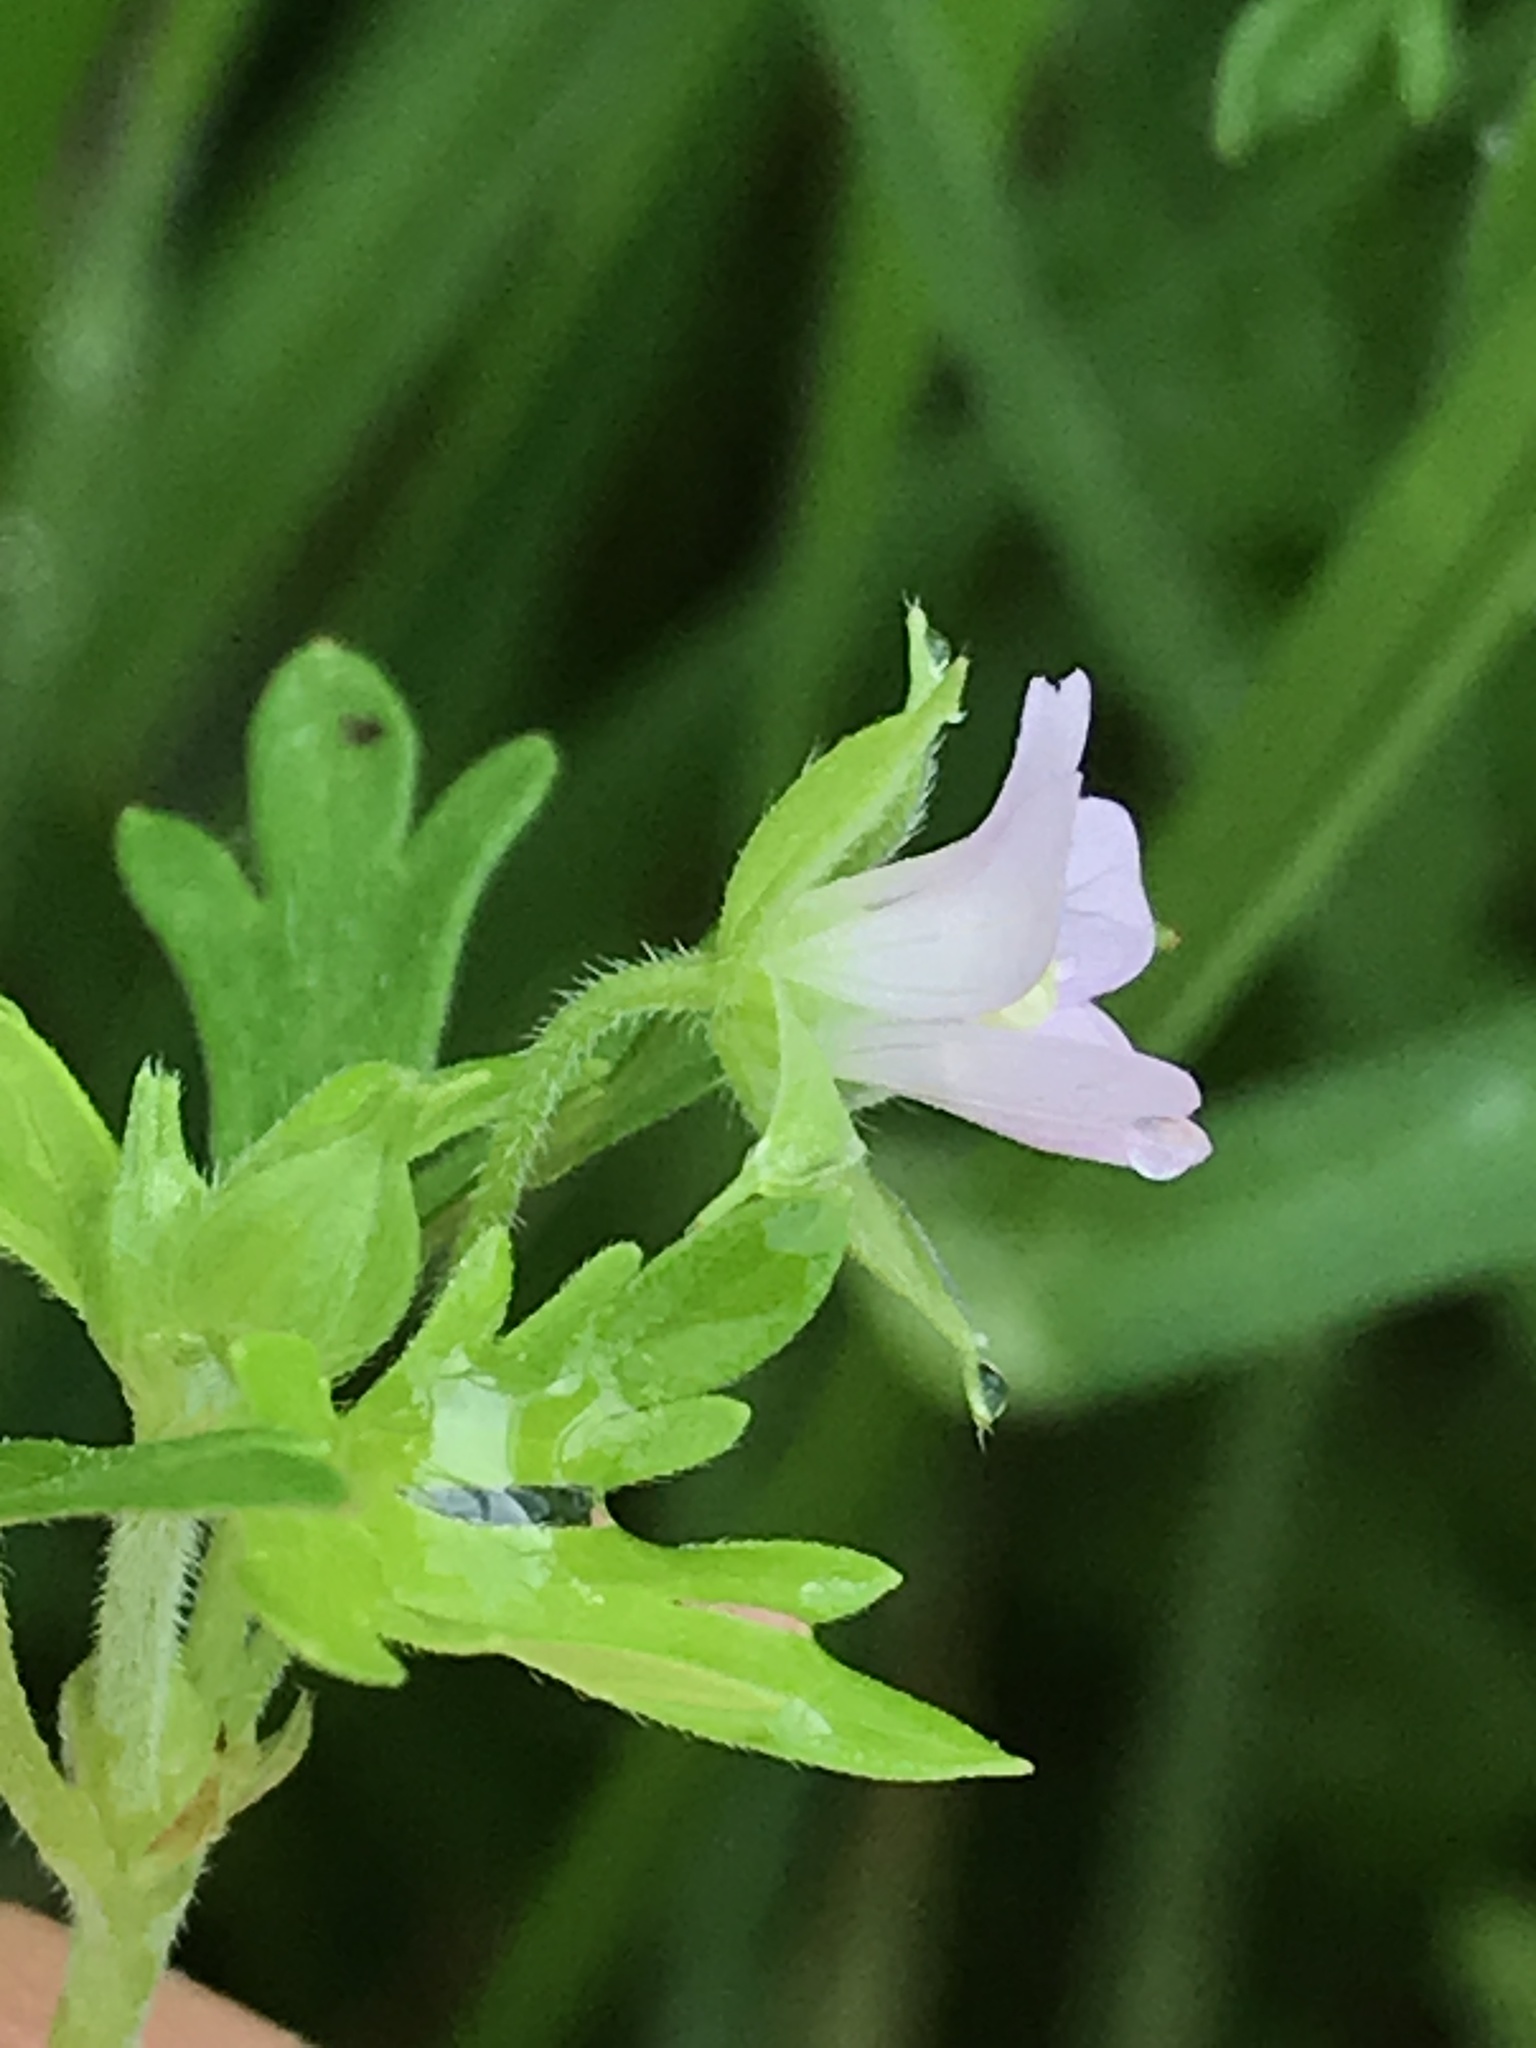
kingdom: Plantae
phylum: Tracheophyta
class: Magnoliopsida
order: Geraniales
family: Geraniaceae
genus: Geranium
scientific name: Geranium carolinianum
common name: Carolina crane's-bill
